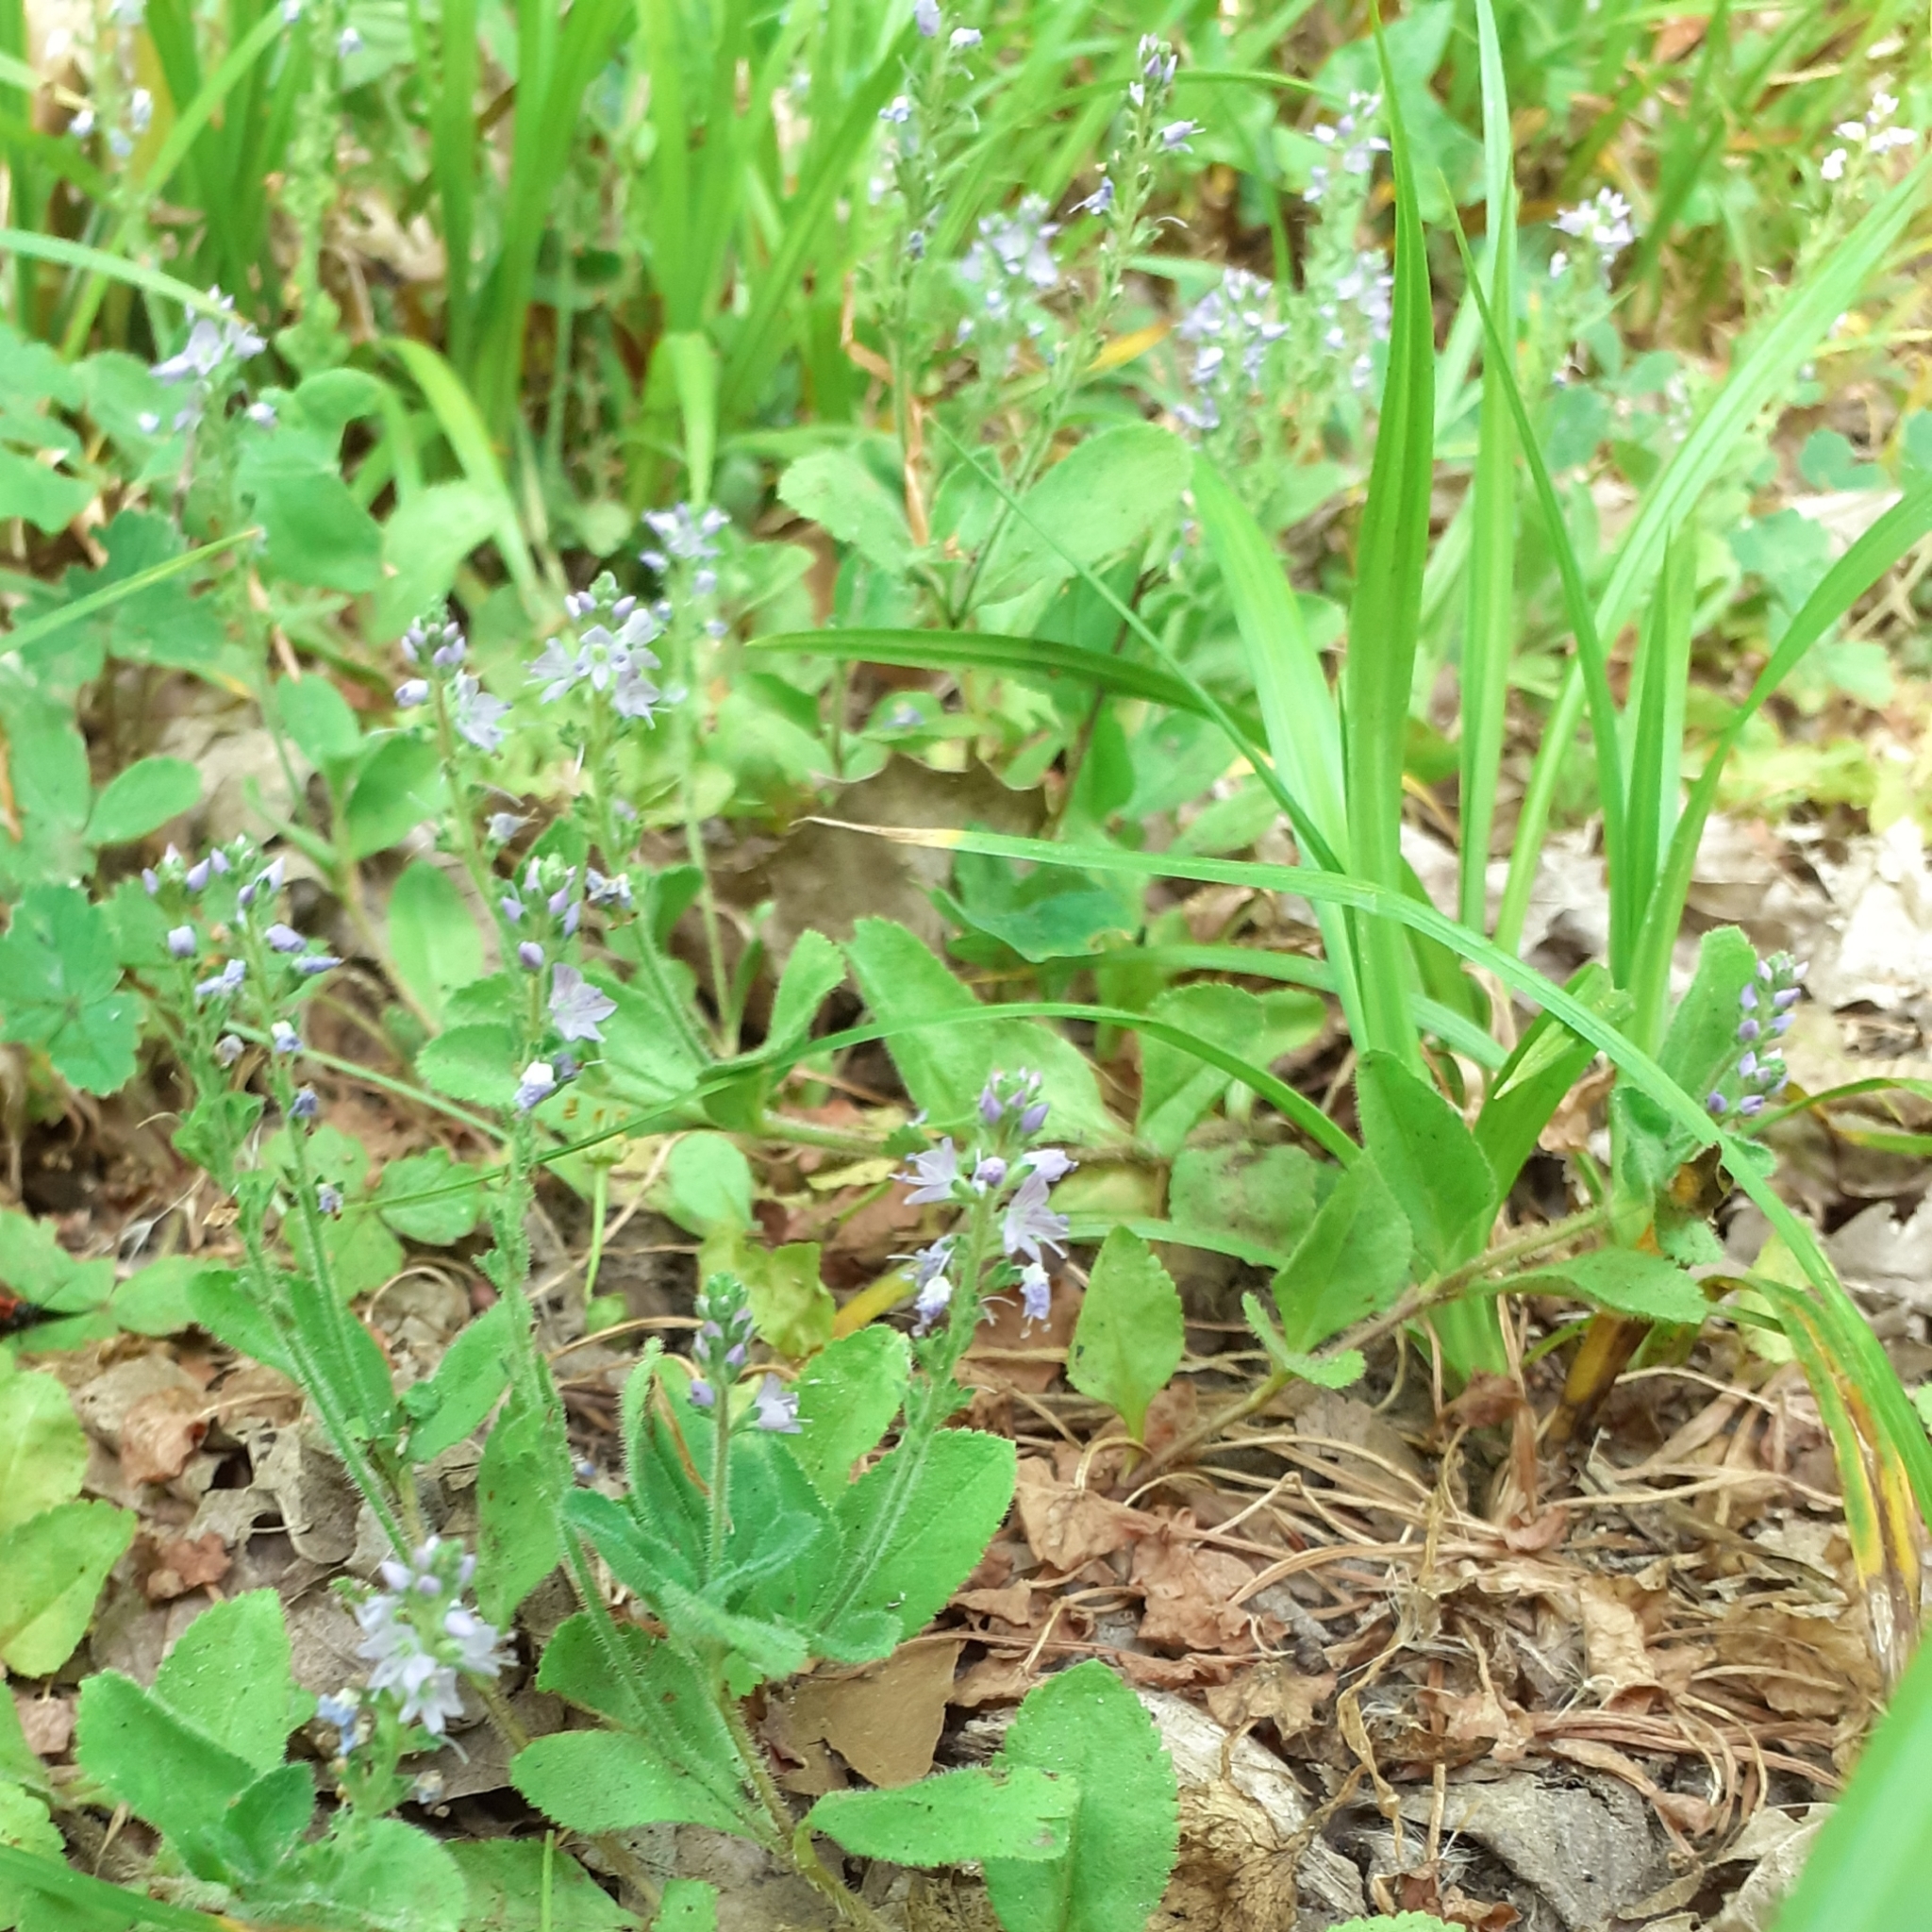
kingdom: Plantae
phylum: Tracheophyta
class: Magnoliopsida
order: Lamiales
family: Plantaginaceae
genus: Veronica
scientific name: Veronica officinalis
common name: Common speedwell
